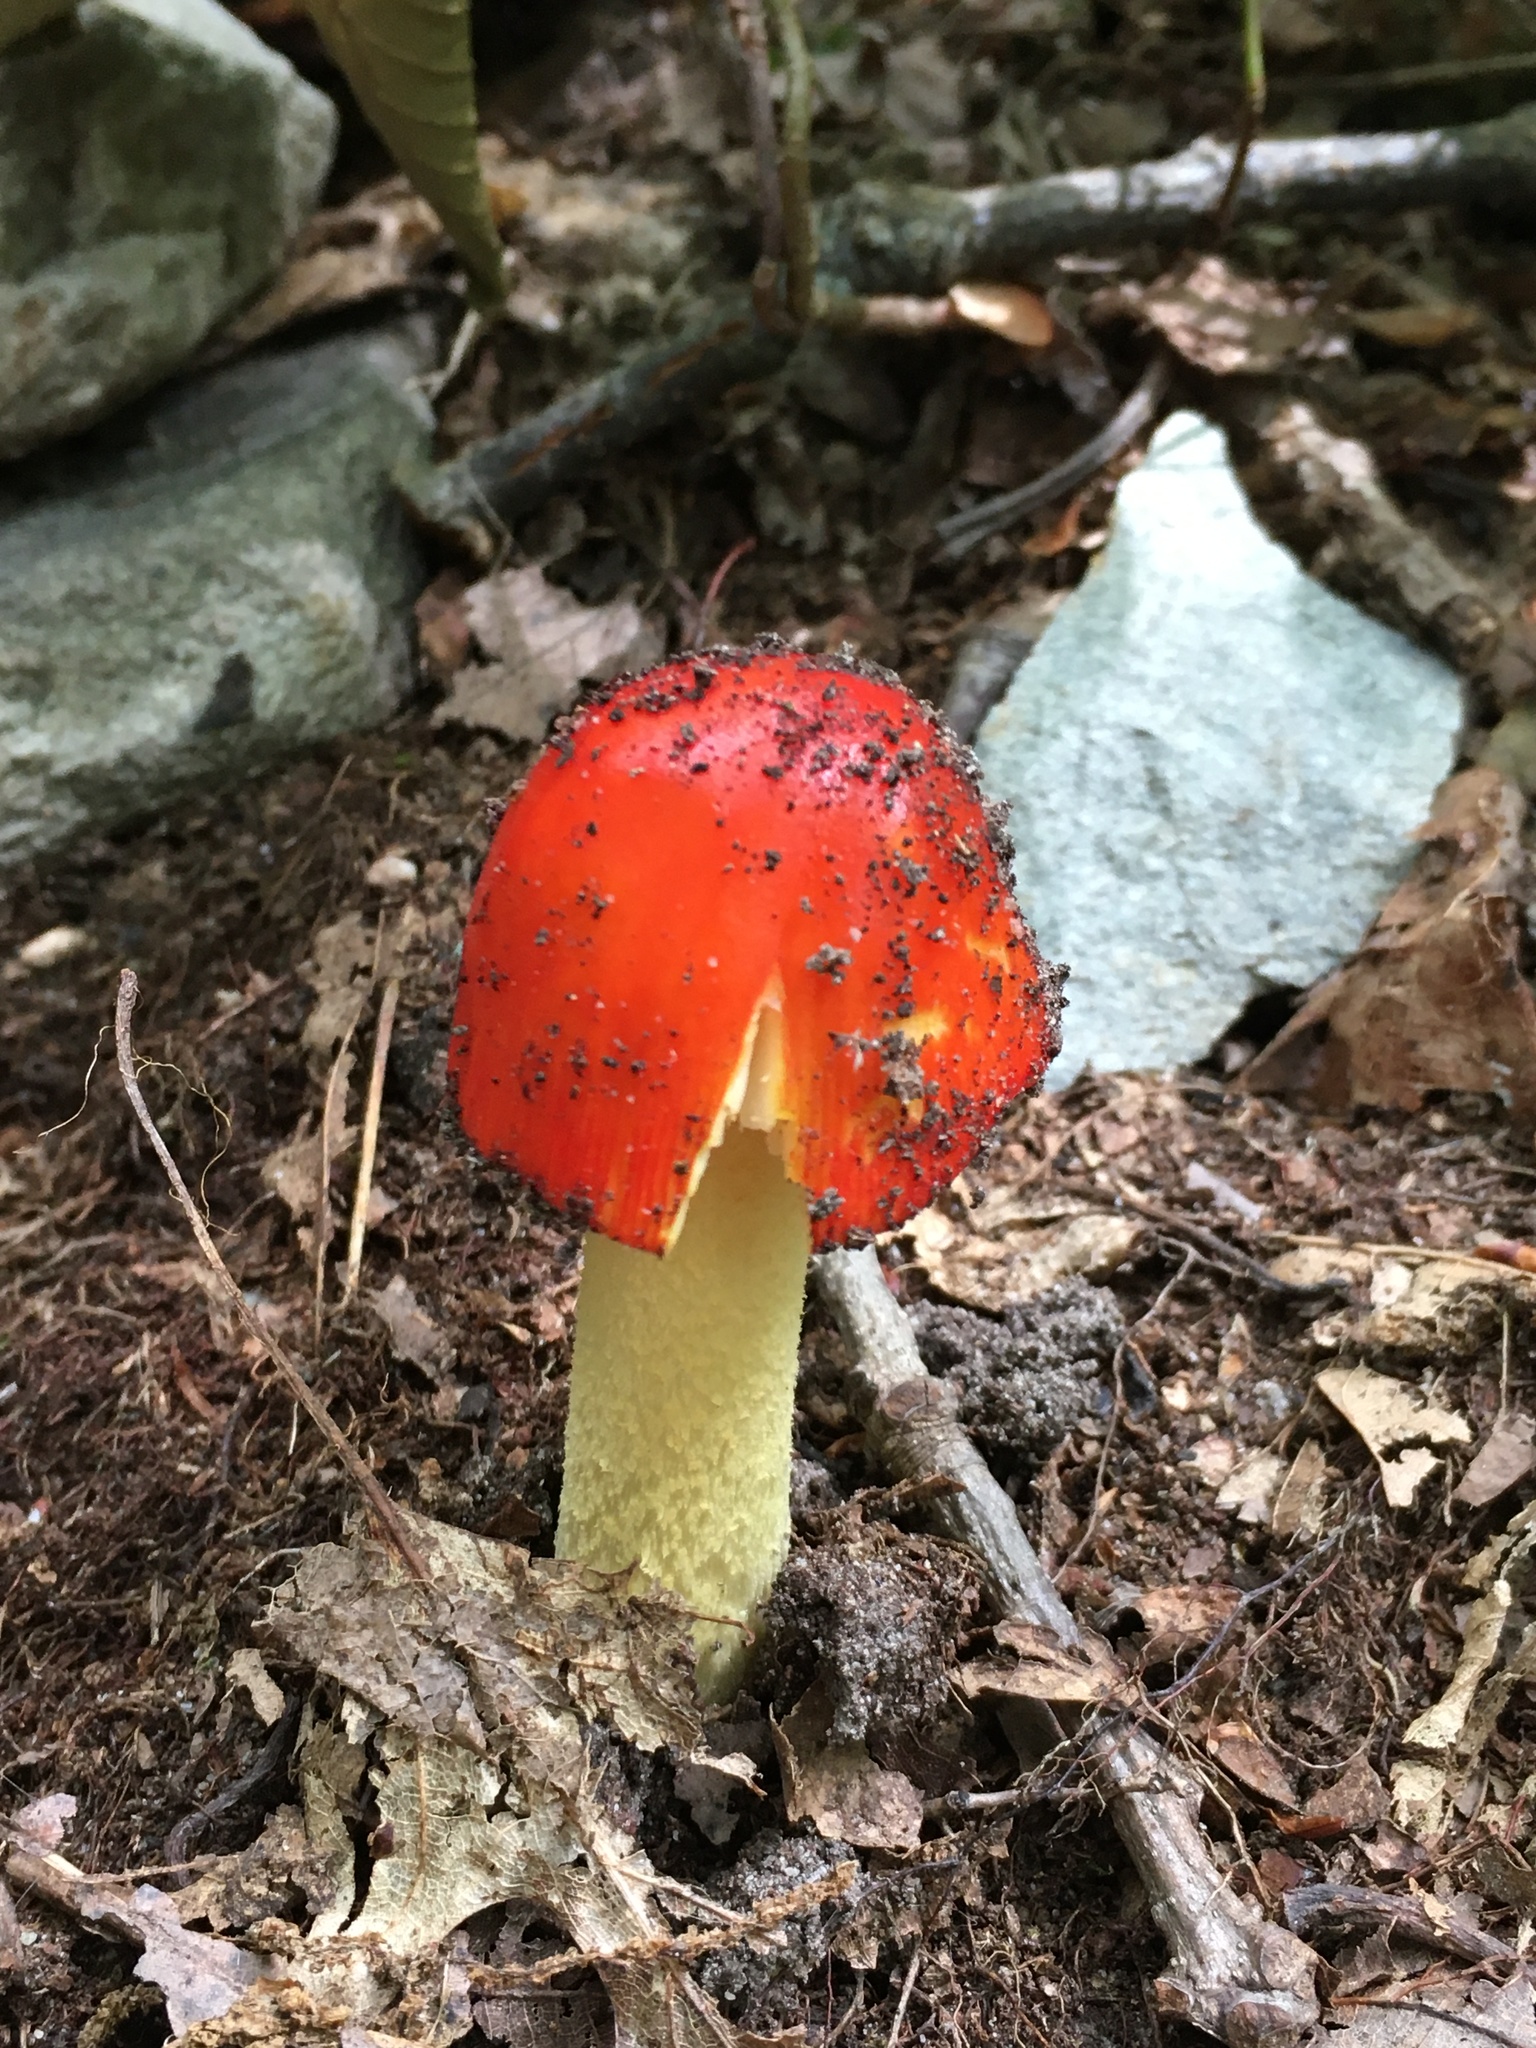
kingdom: Fungi
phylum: Basidiomycota
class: Agaricomycetes
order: Agaricales
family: Amanitaceae
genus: Amanita
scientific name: Amanita parcivolvata
